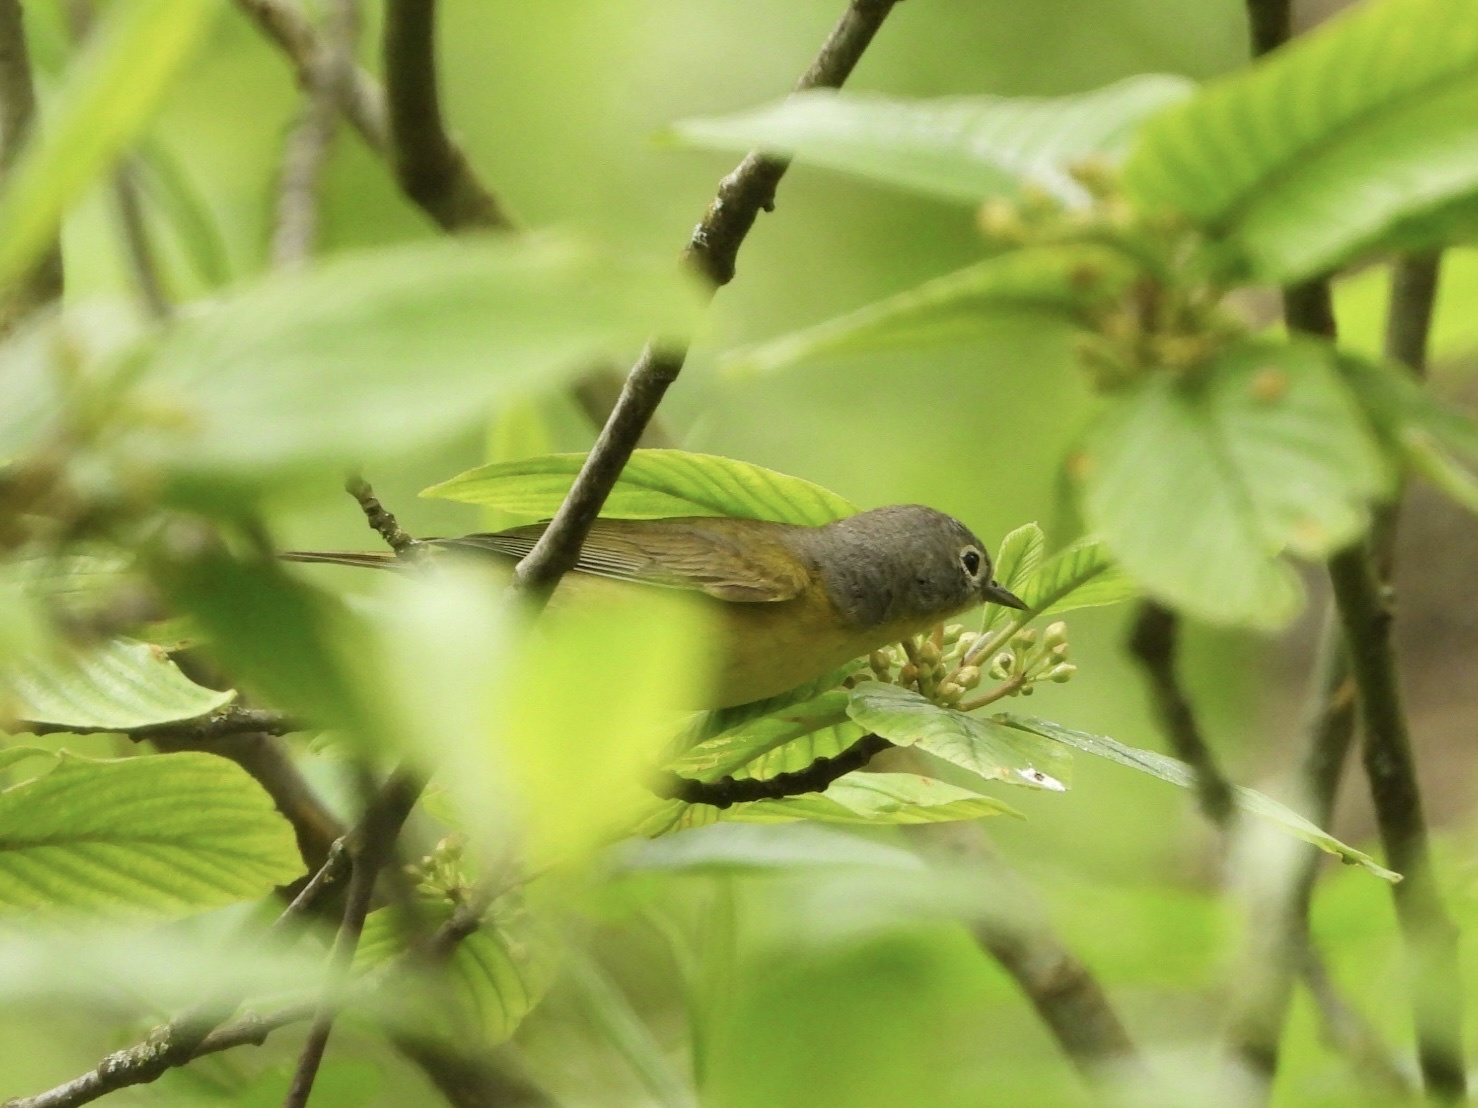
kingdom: Animalia
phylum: Chordata
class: Aves
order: Passeriformes
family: Parulidae
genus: Leiothlypis
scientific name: Leiothlypis ruficapilla
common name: Nashville warbler
